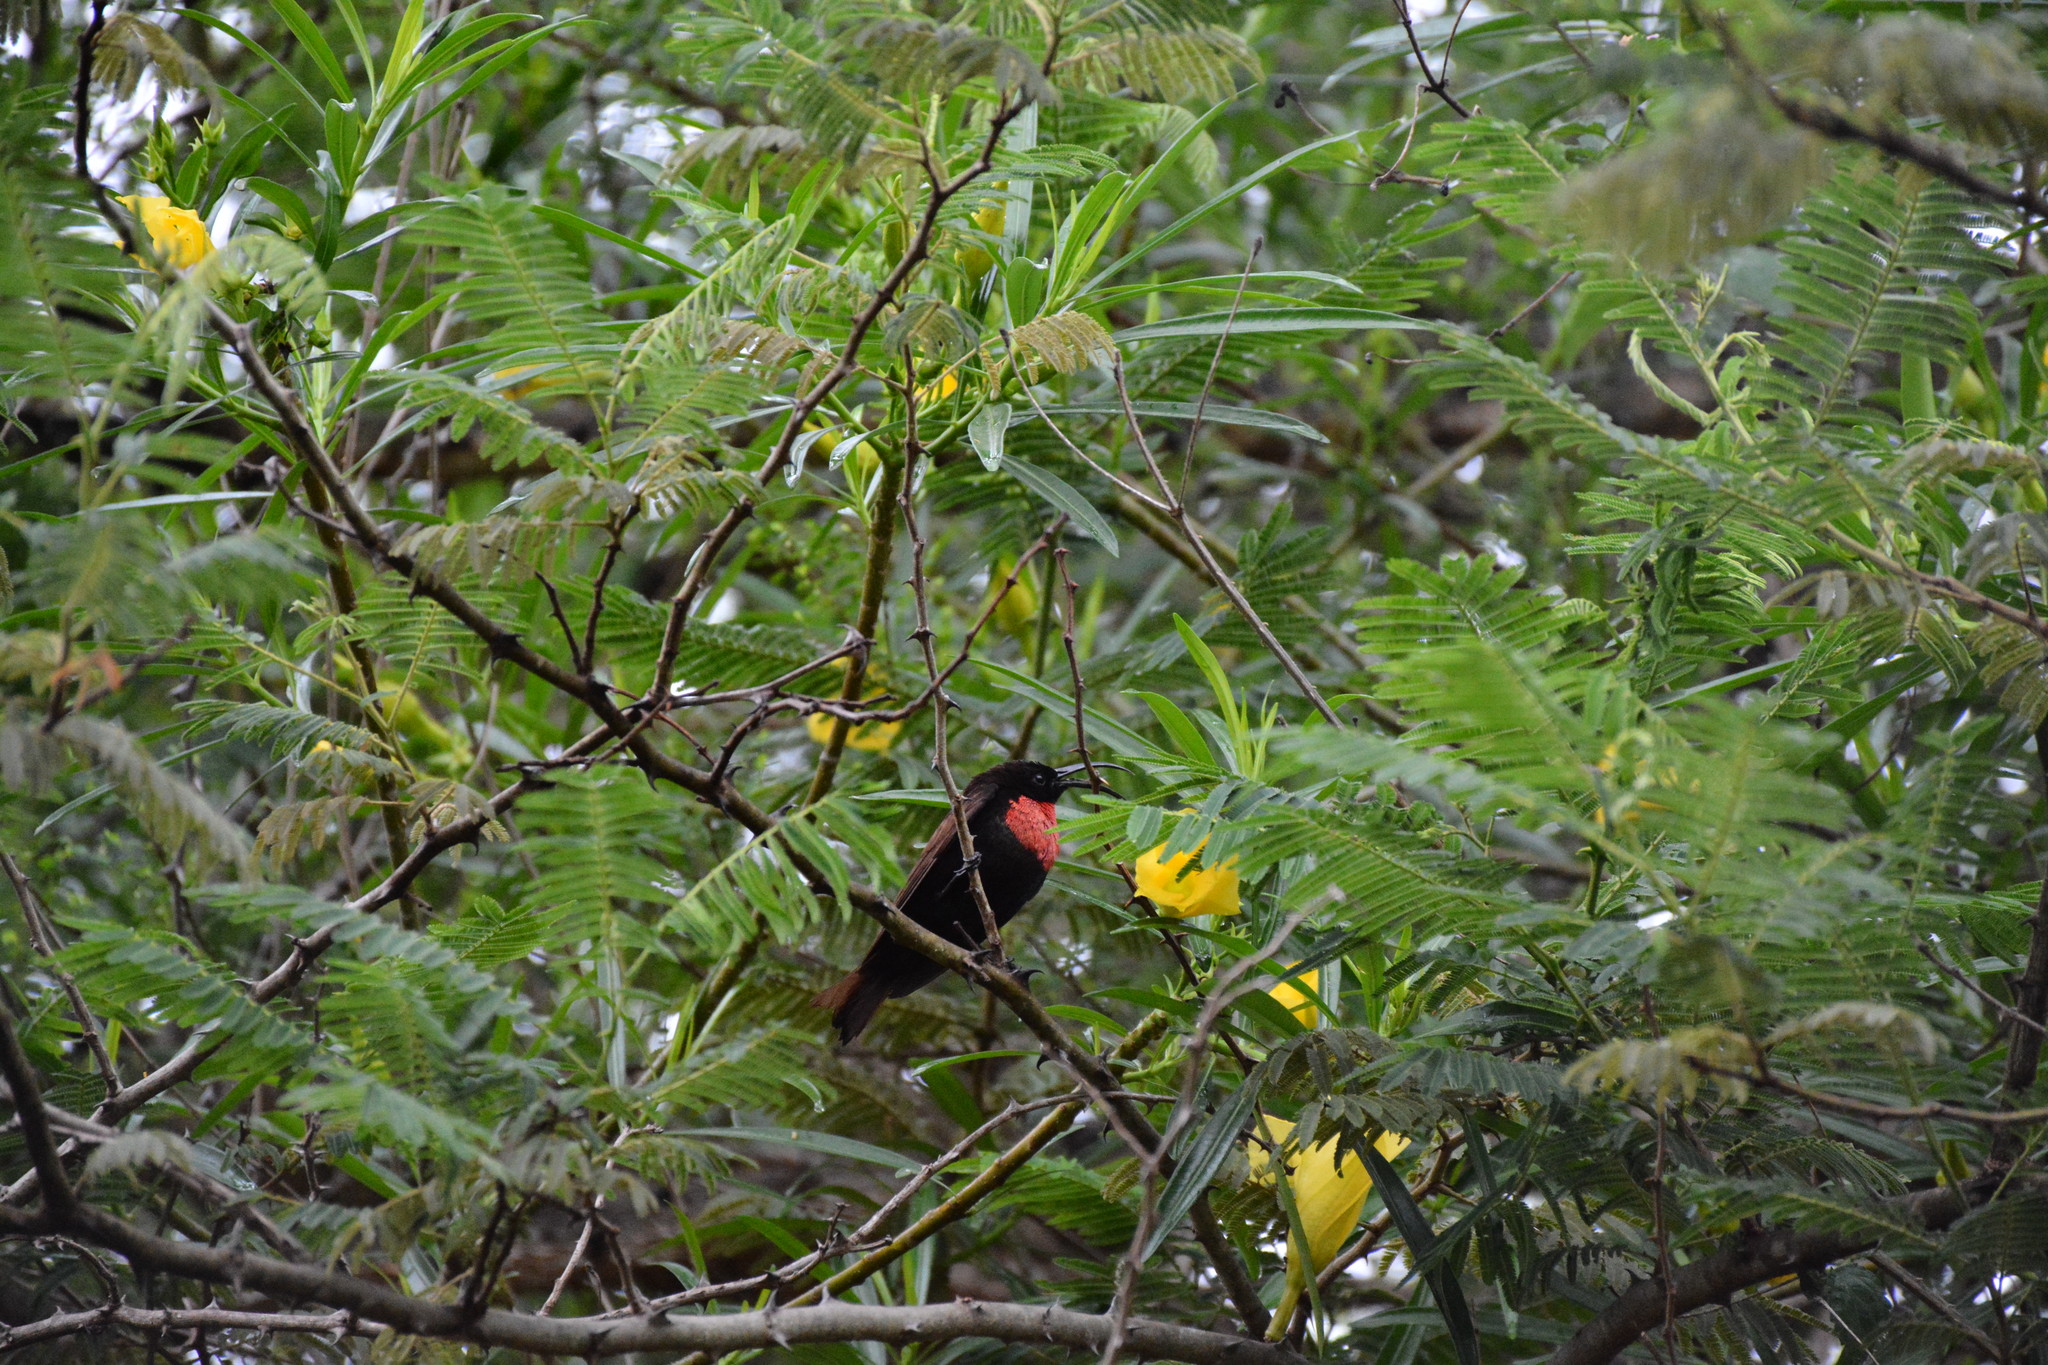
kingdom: Animalia
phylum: Chordata
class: Aves
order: Passeriformes
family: Nectariniidae
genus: Chalcomitra
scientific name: Chalcomitra senegalensis
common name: Scarlet-chested sunbird
